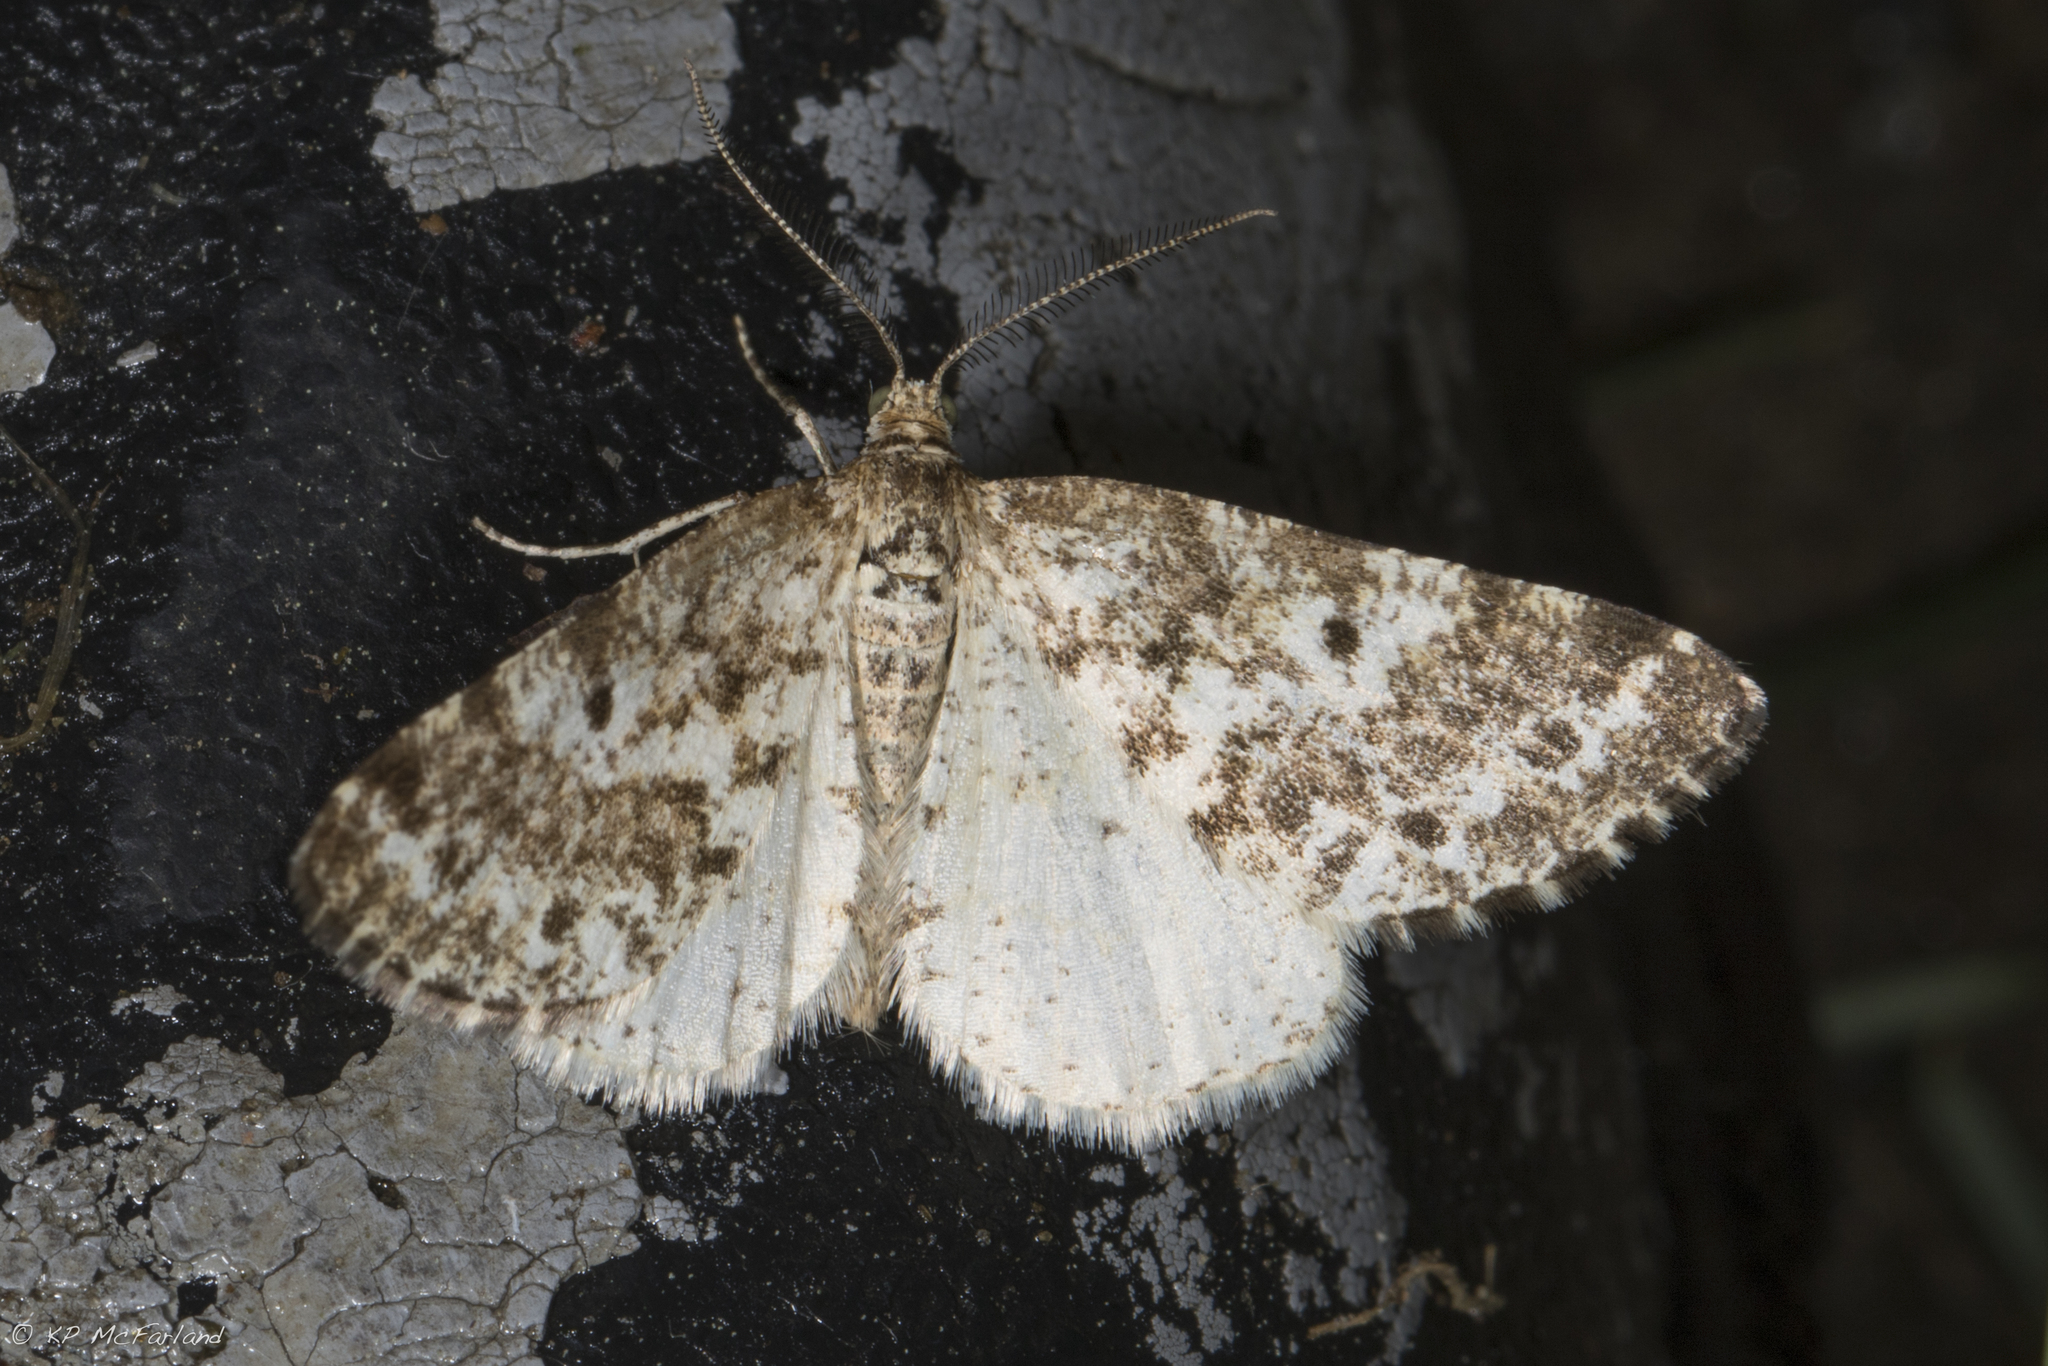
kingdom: Animalia
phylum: Arthropoda
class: Insecta
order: Lepidoptera
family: Geometridae
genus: Eufidonia
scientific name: Eufidonia notataria
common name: Powder moth
